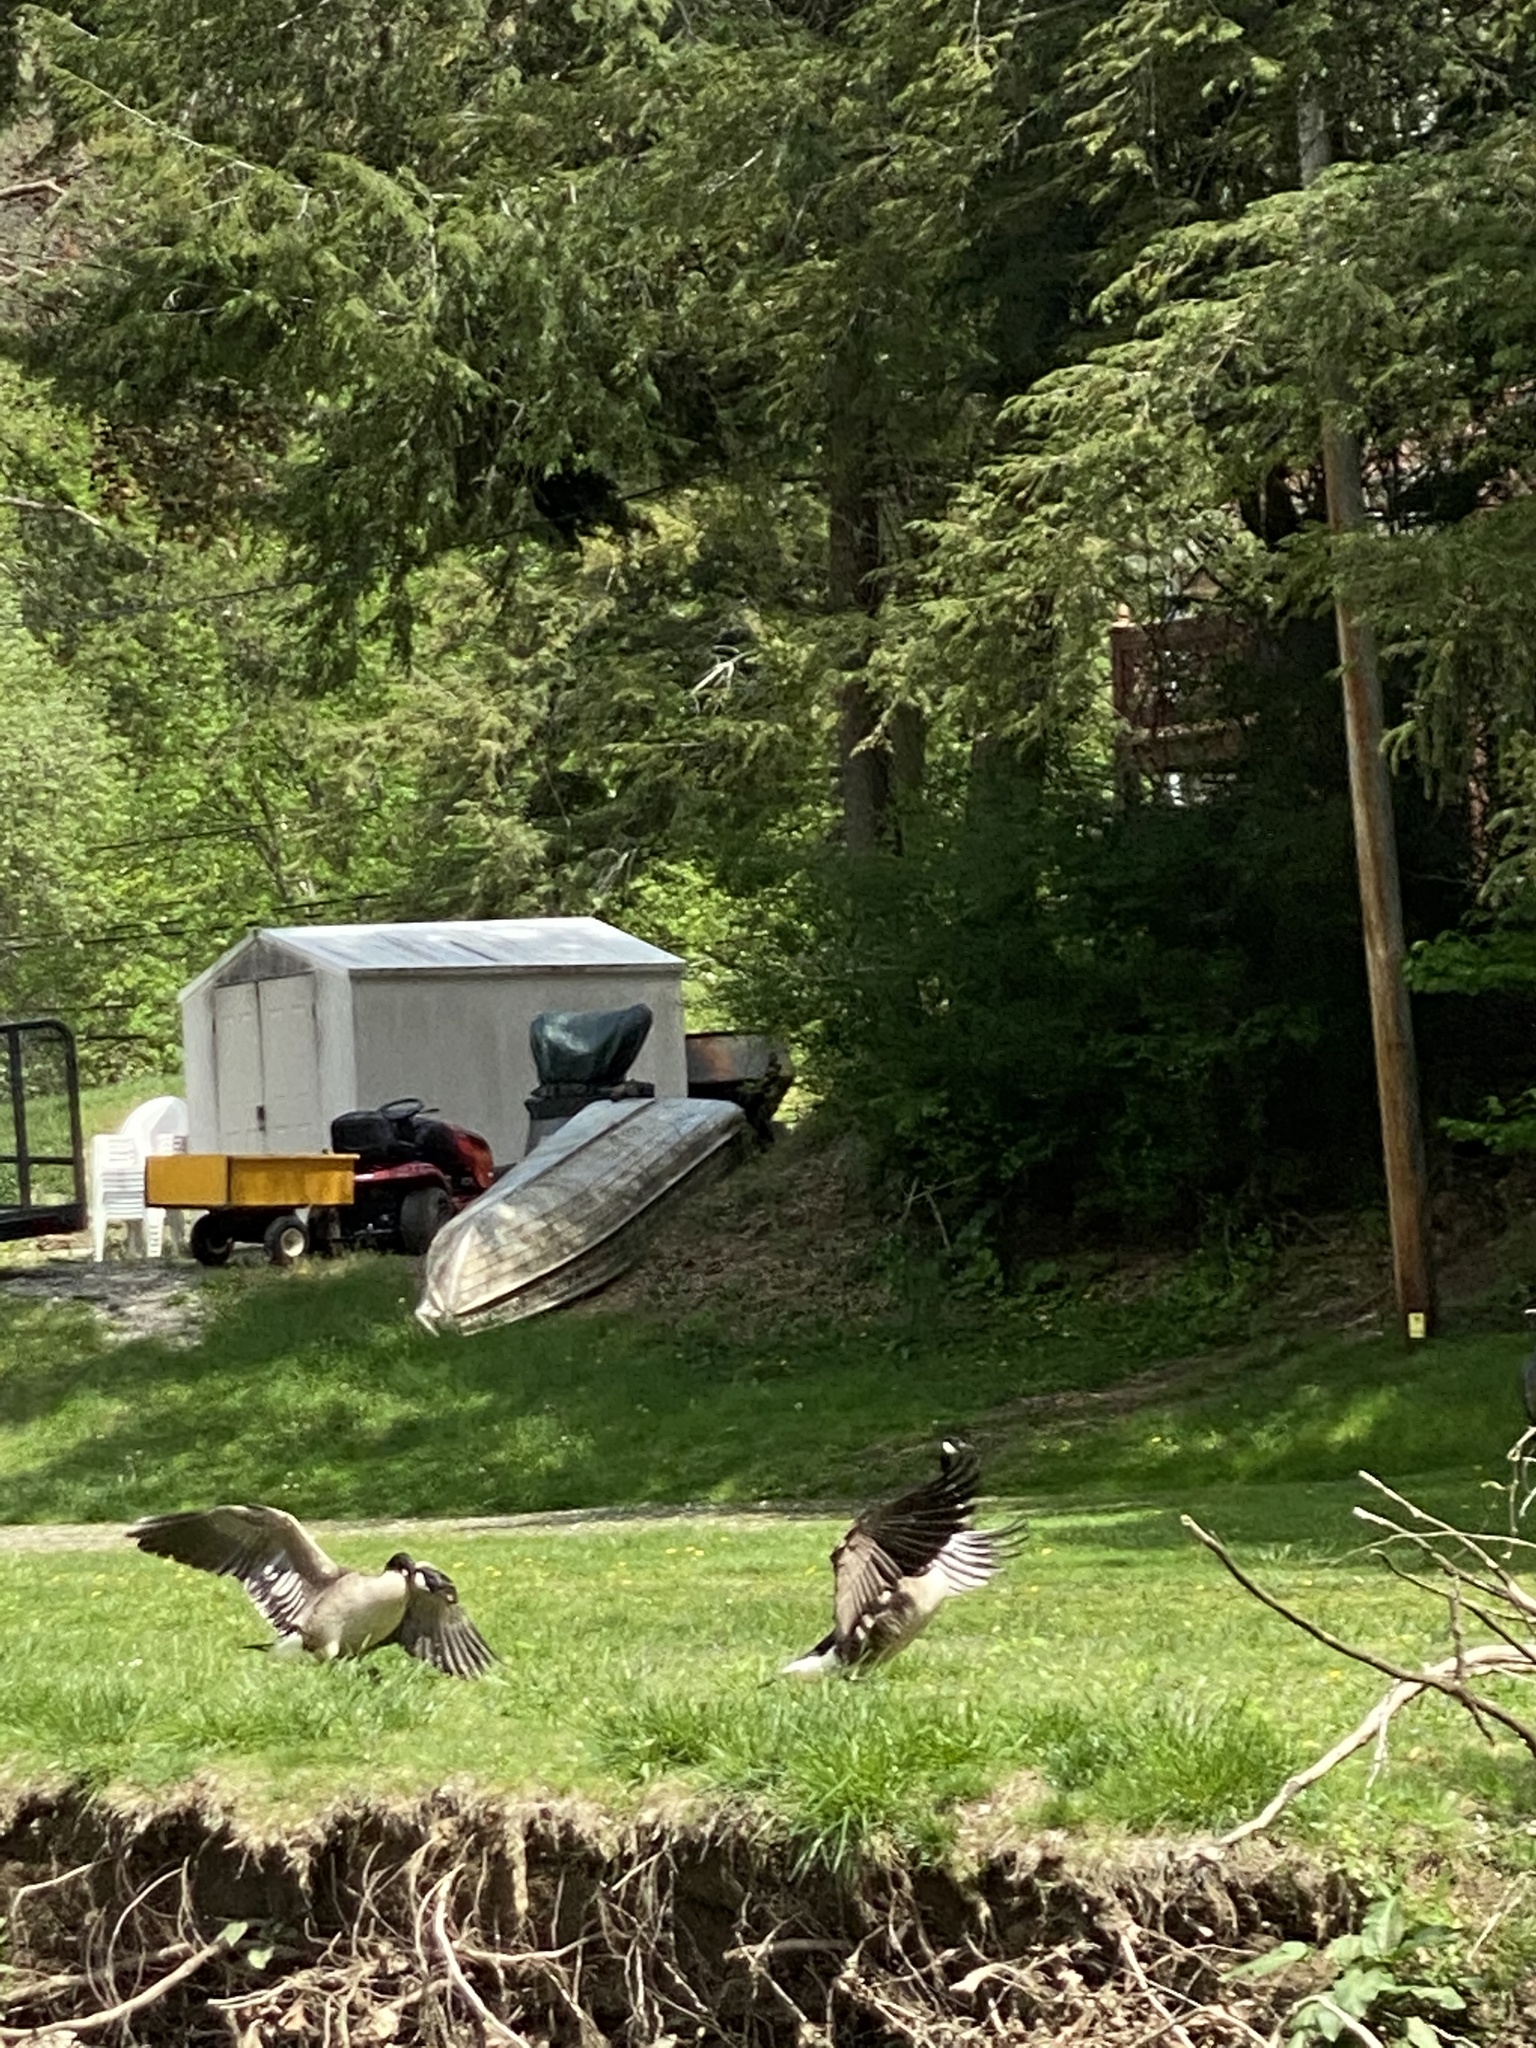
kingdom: Animalia
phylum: Chordata
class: Aves
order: Anseriformes
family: Anatidae
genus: Branta
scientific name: Branta canadensis
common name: Canada goose
